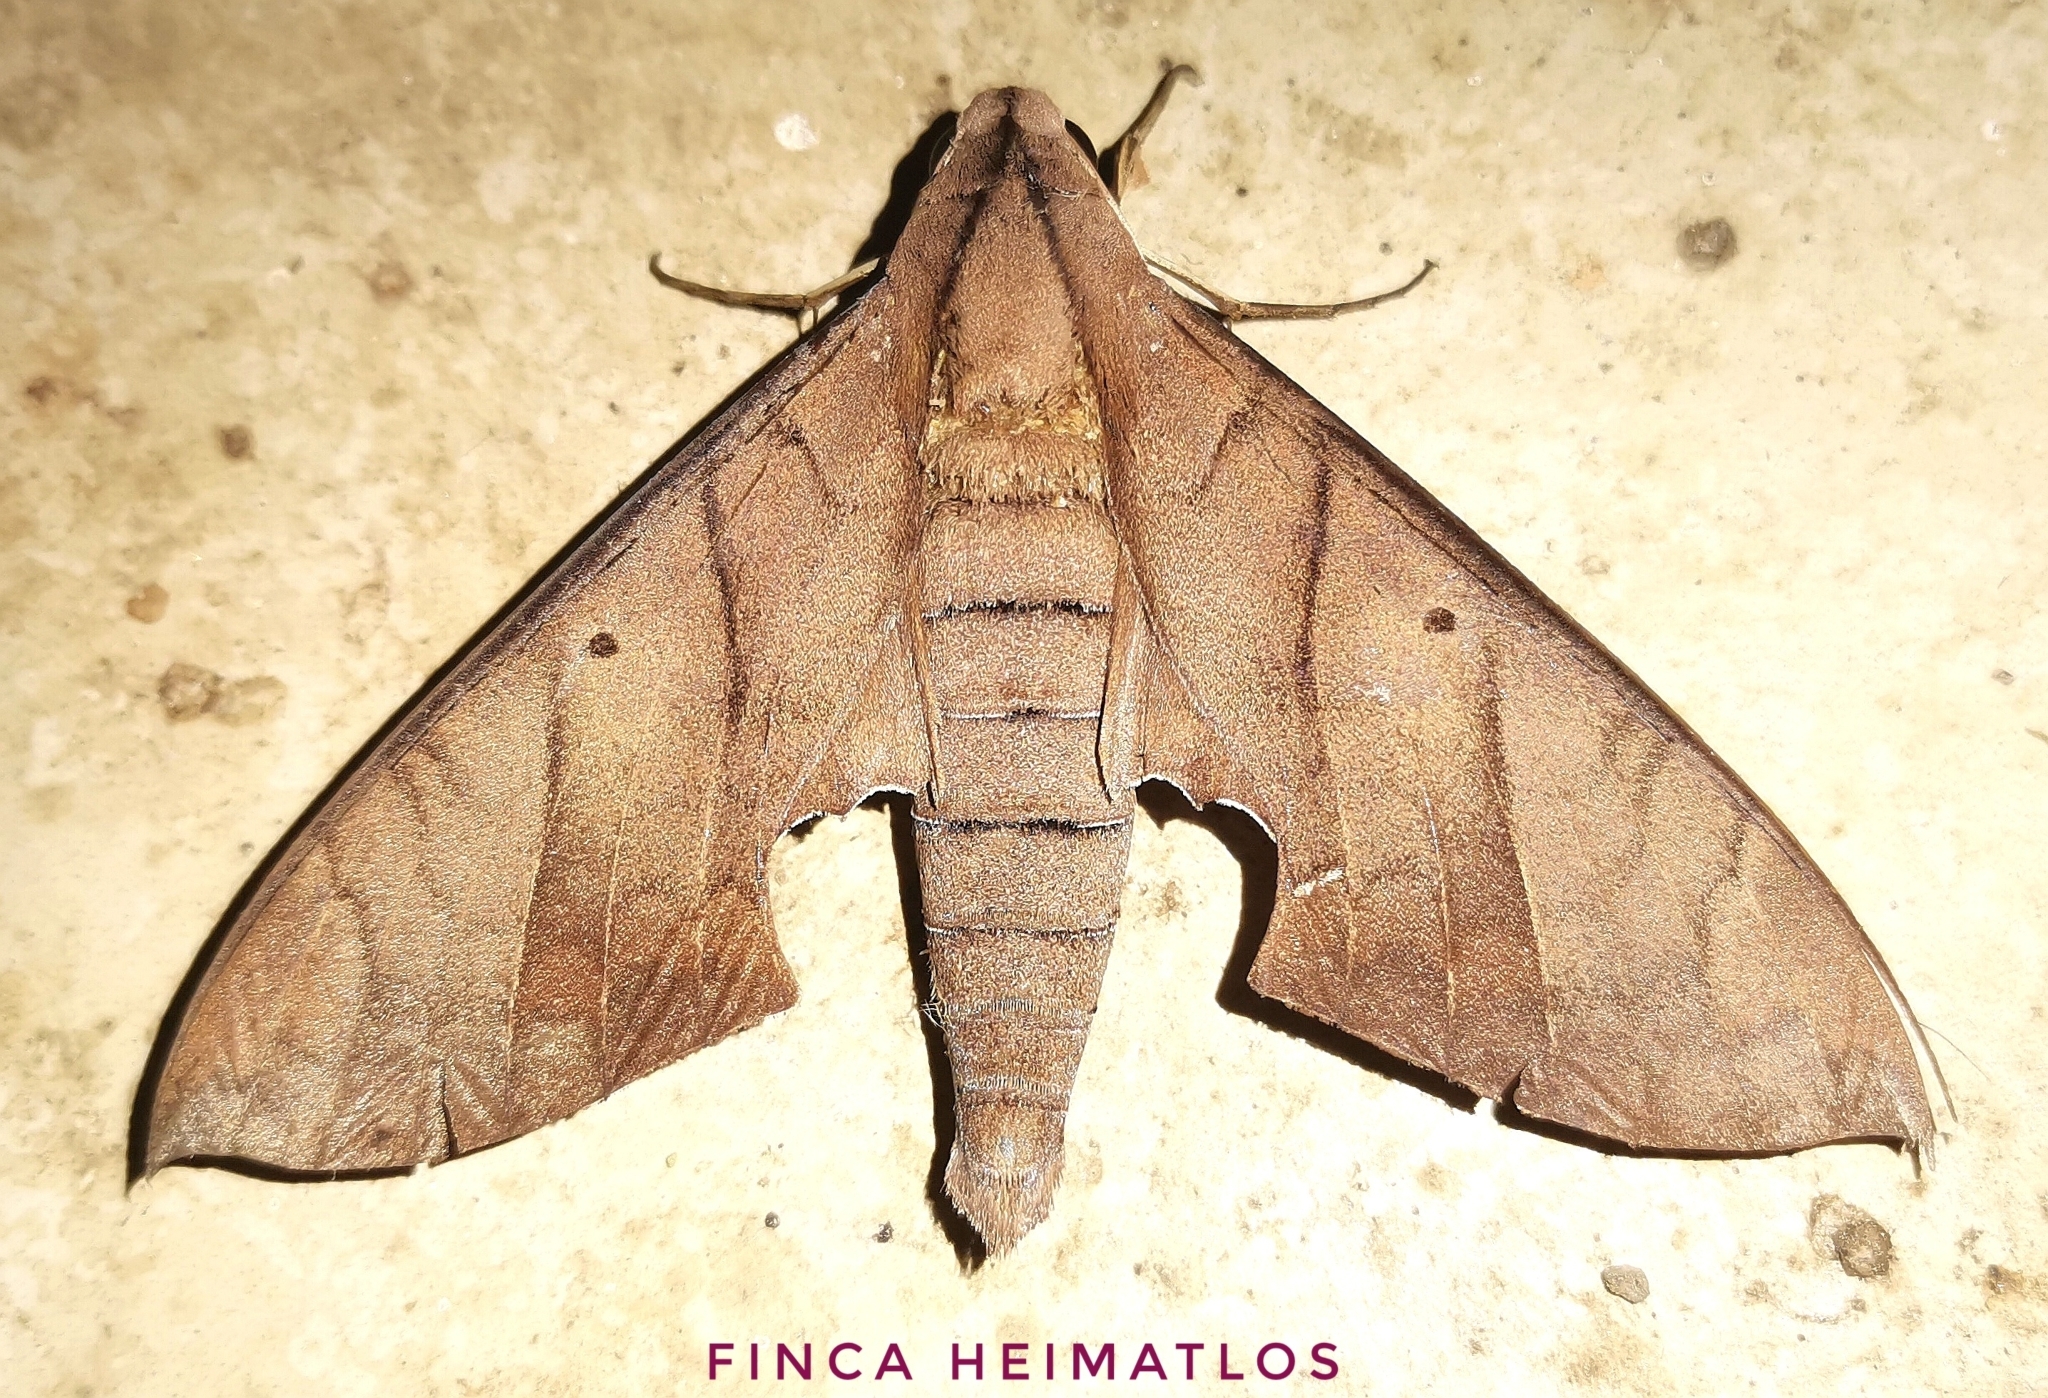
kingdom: Animalia
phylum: Arthropoda
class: Insecta
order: Lepidoptera
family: Sphingidae
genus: Pachylia
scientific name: Pachylia darceta
